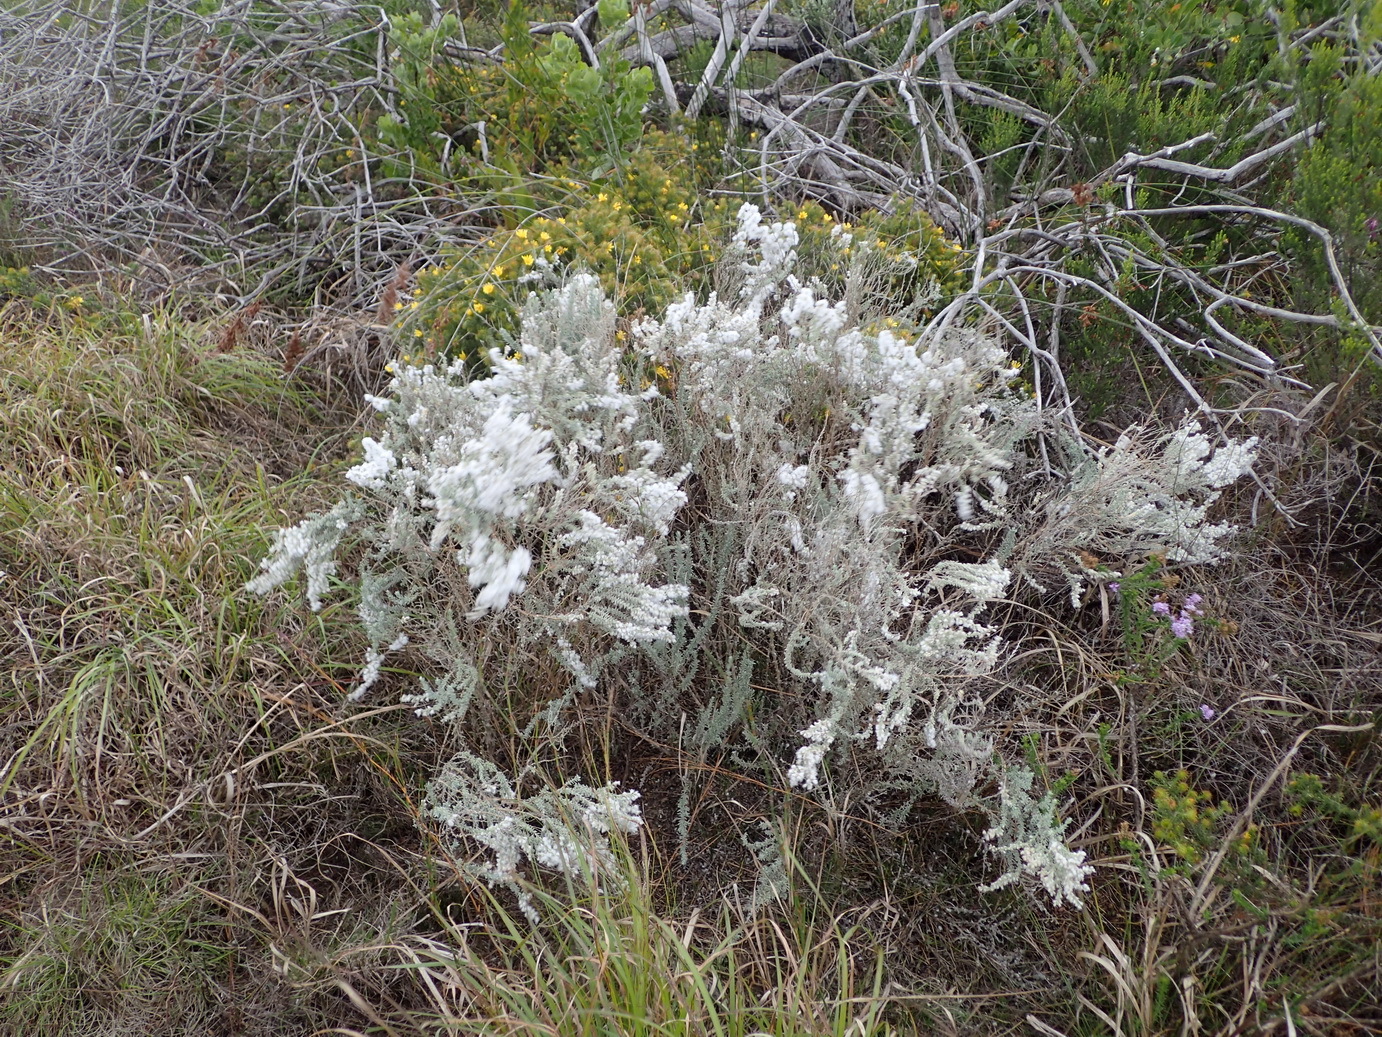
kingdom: Plantae
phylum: Tracheophyta
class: Magnoliopsida
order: Asterales
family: Asteraceae
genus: Eriocephalus
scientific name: Eriocephalus racemosus
